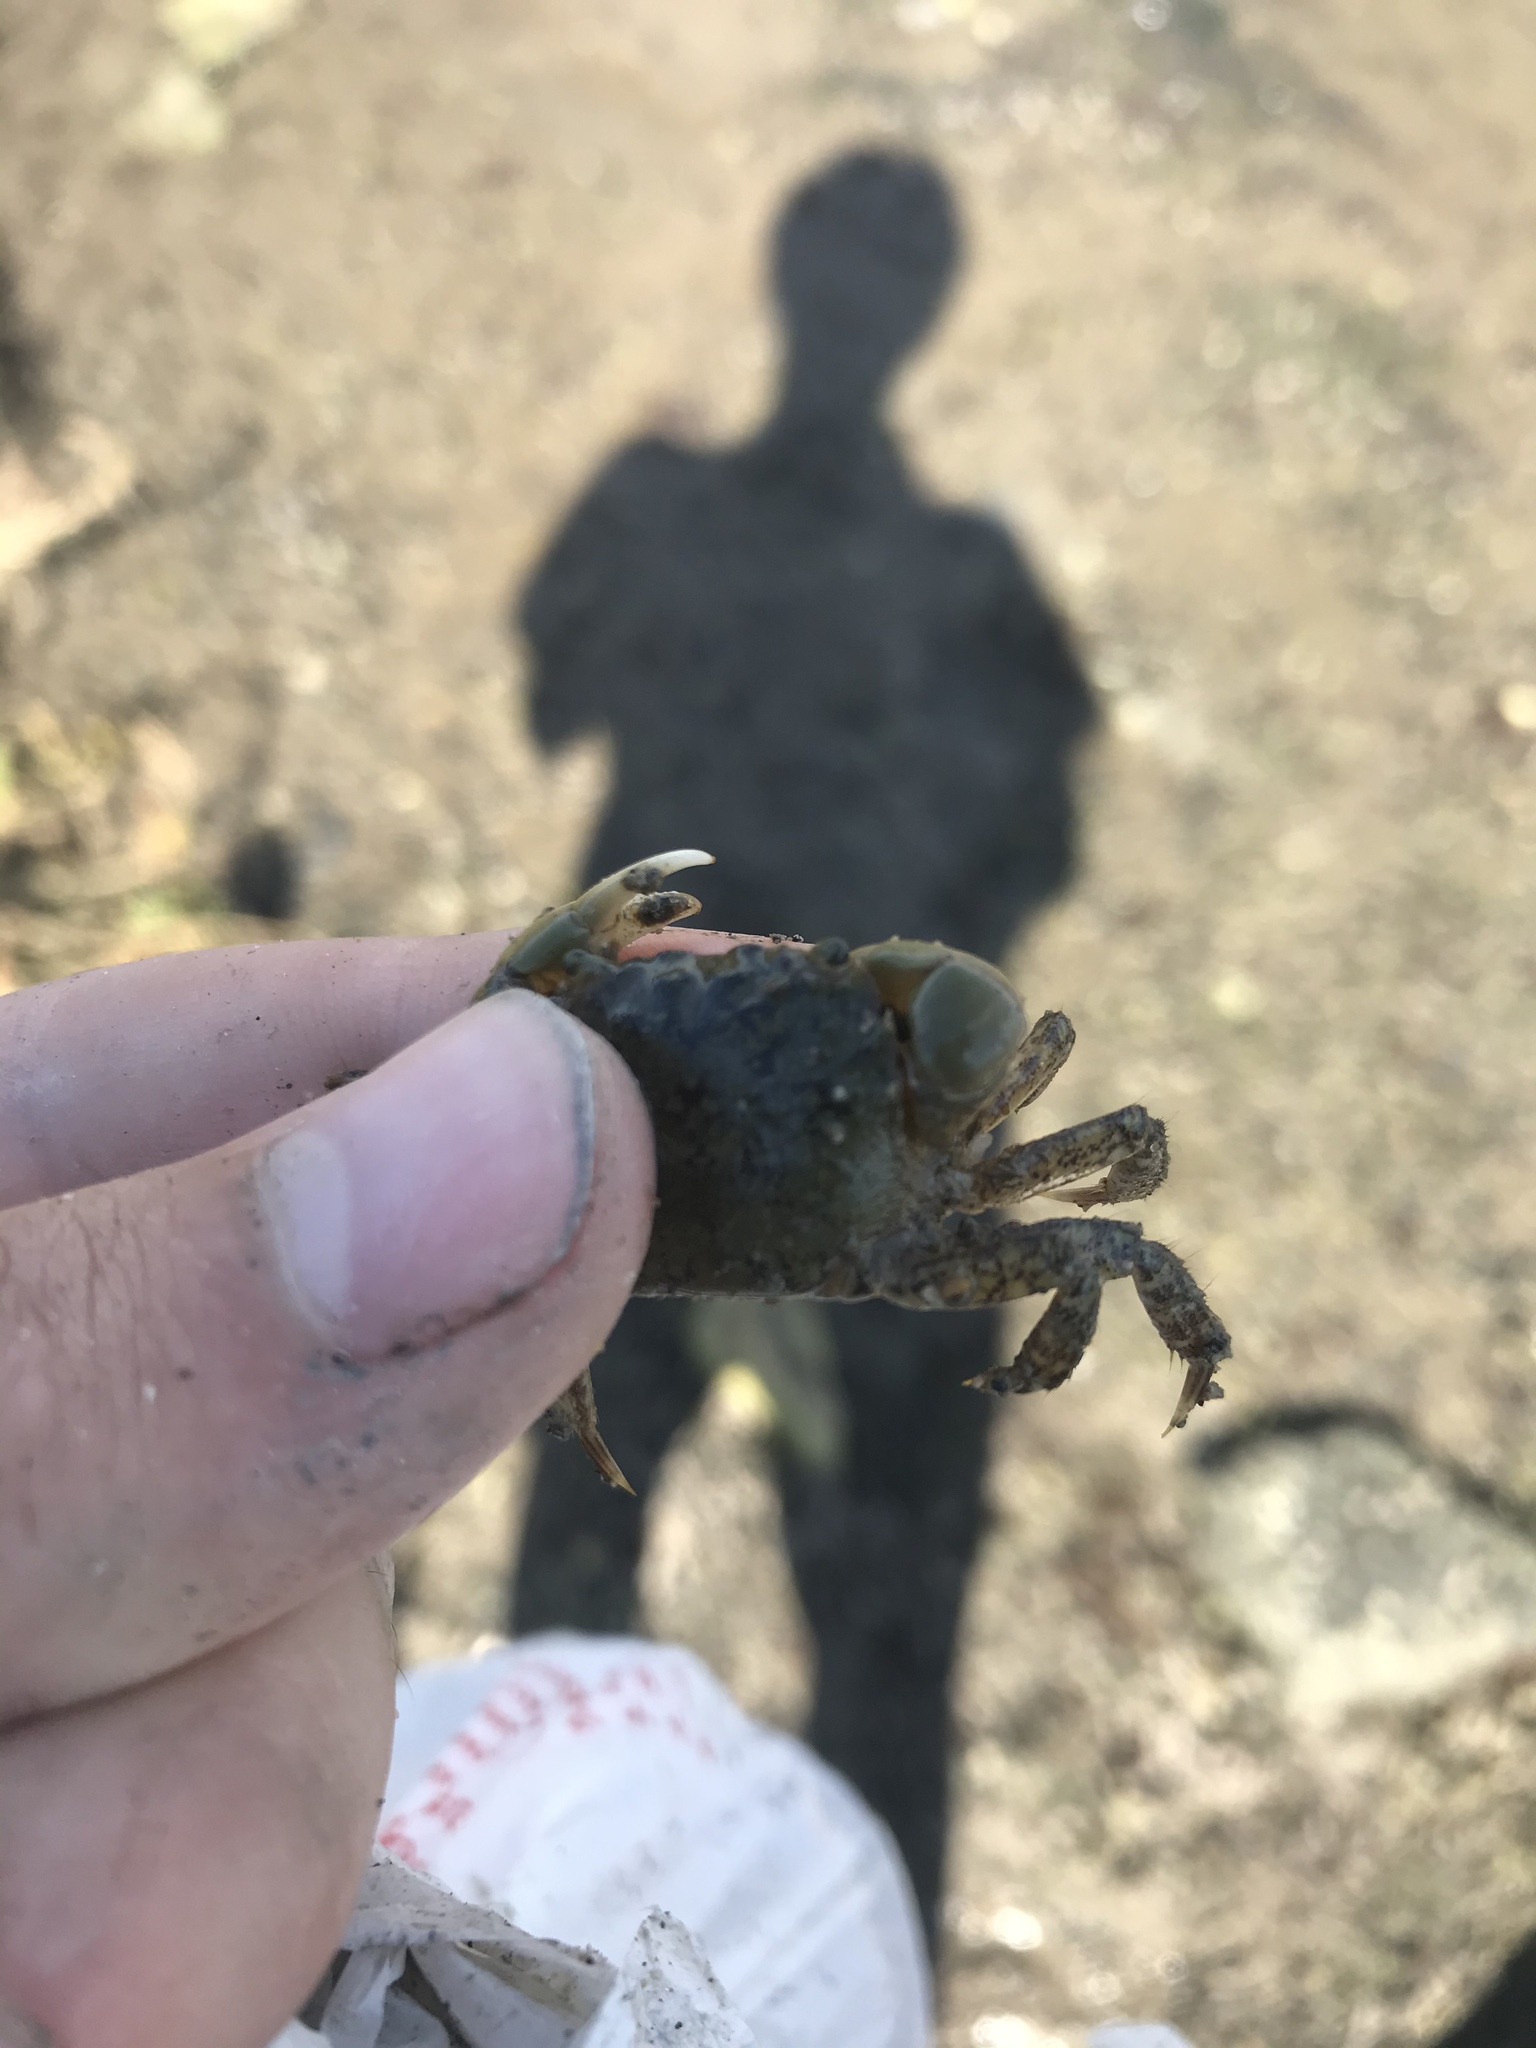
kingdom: Animalia
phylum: Arthropoda
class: Malacostraca
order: Decapoda
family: Varunidae
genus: Hemigrapsus
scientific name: Hemigrapsus oregonensis
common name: Yellow shore crab
